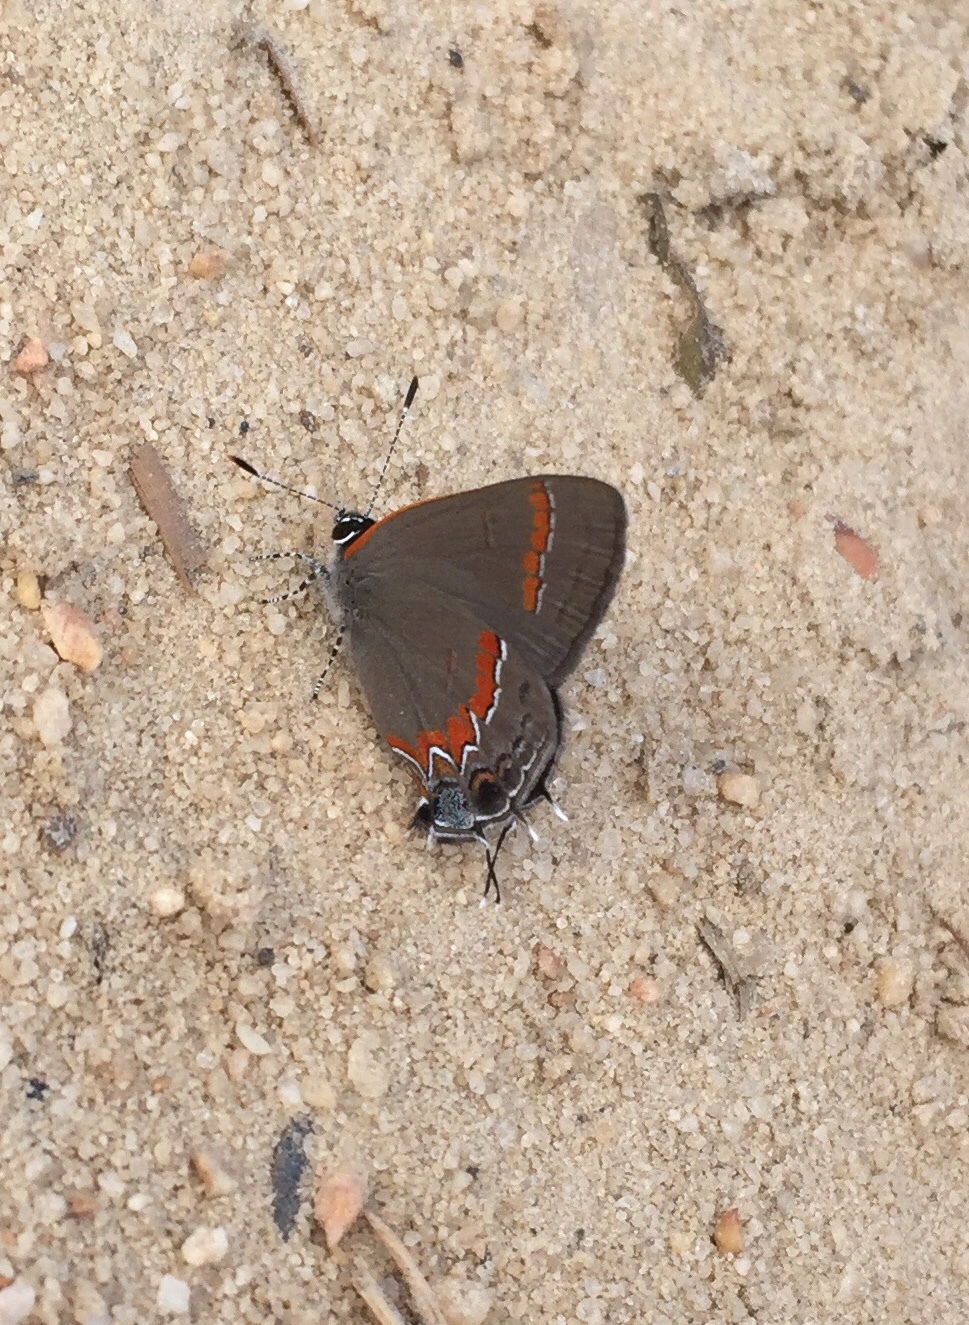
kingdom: Animalia
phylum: Arthropoda
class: Insecta
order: Lepidoptera
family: Lycaenidae
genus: Calycopis
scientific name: Calycopis cecrops
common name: Red-banded hairstreak
